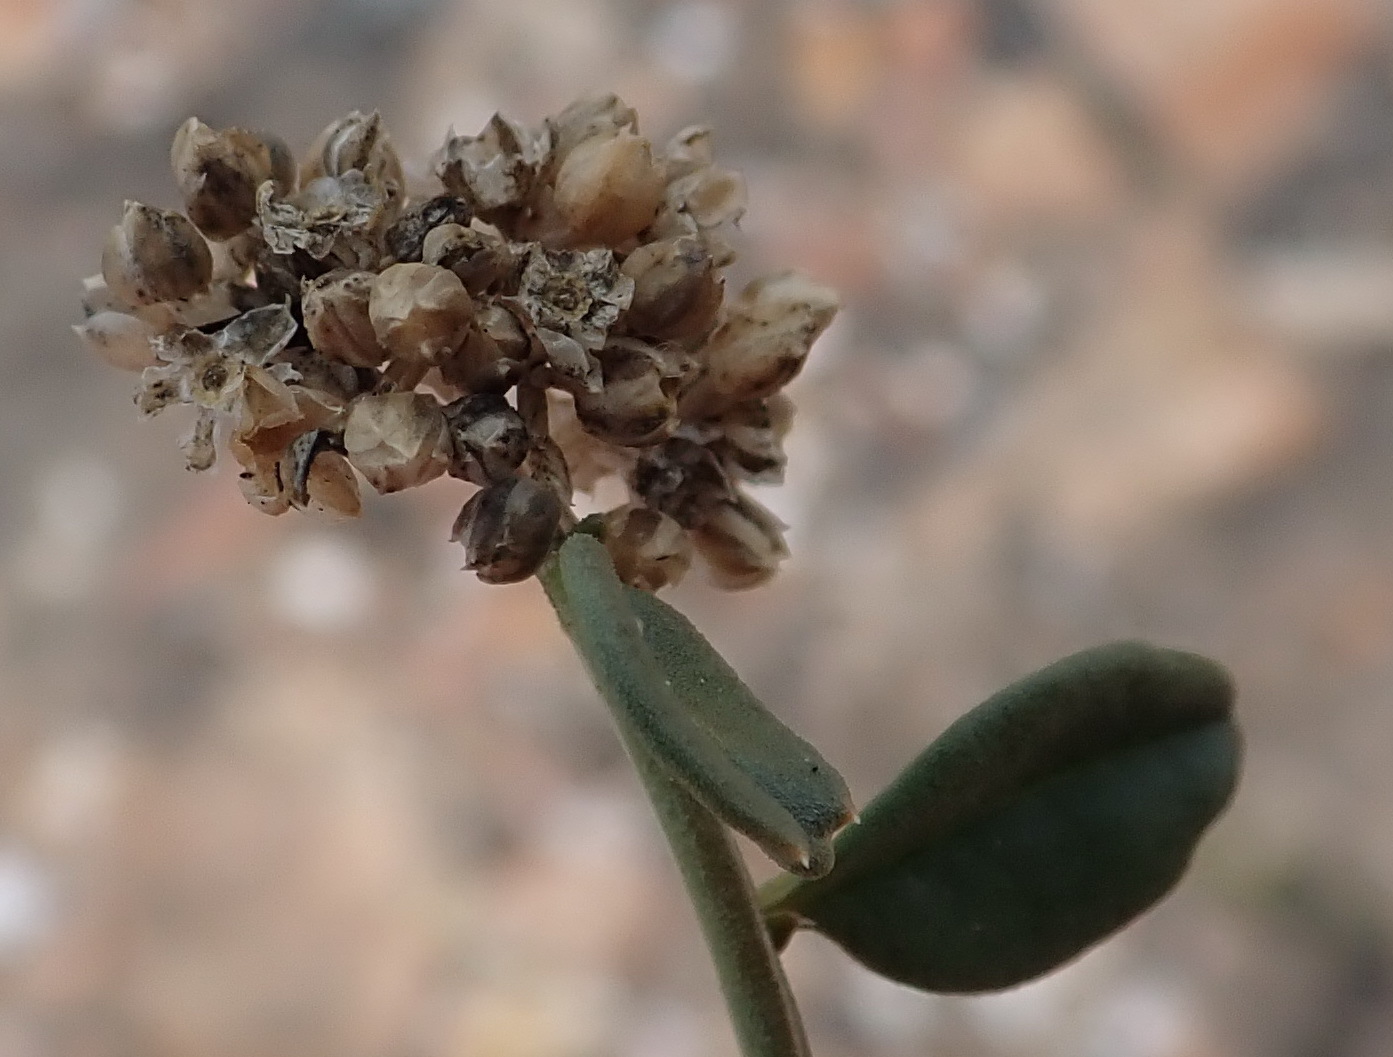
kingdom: Plantae
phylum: Tracheophyta
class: Magnoliopsida
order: Caryophyllales
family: Limeaceae
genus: Limeum
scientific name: Limeum telephioides
